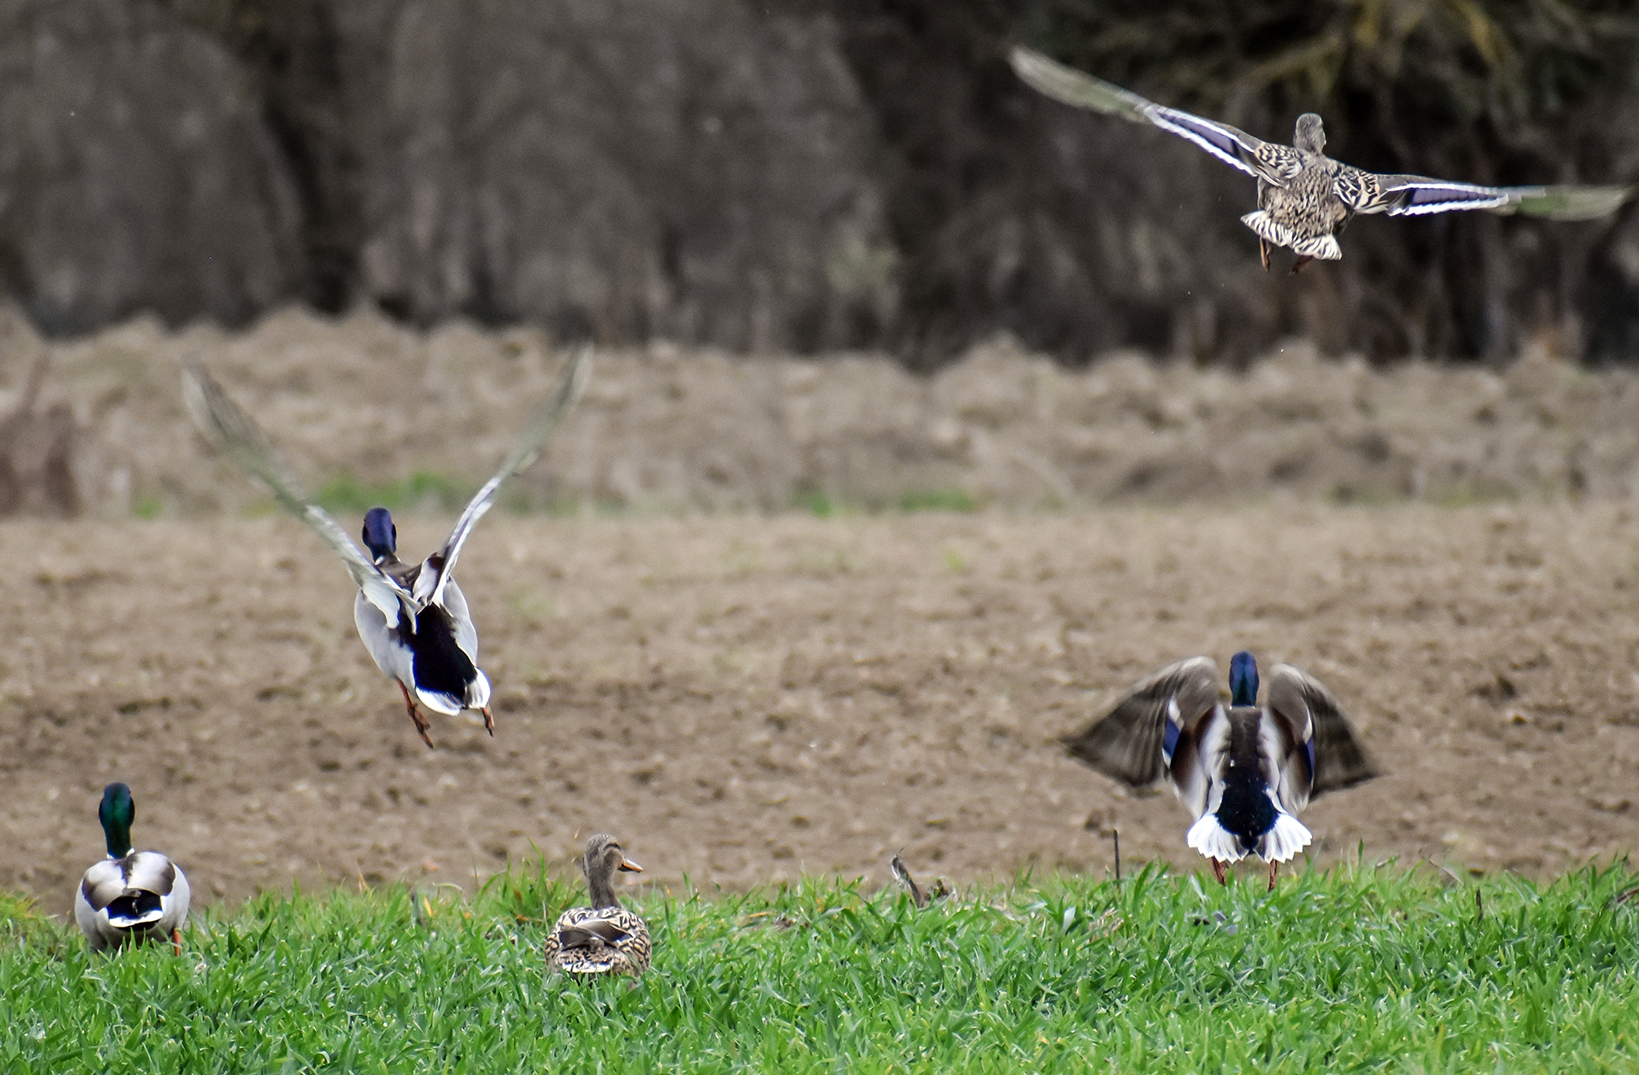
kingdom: Animalia
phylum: Chordata
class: Aves
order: Anseriformes
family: Anatidae
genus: Anas
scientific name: Anas platyrhynchos
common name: Mallard
